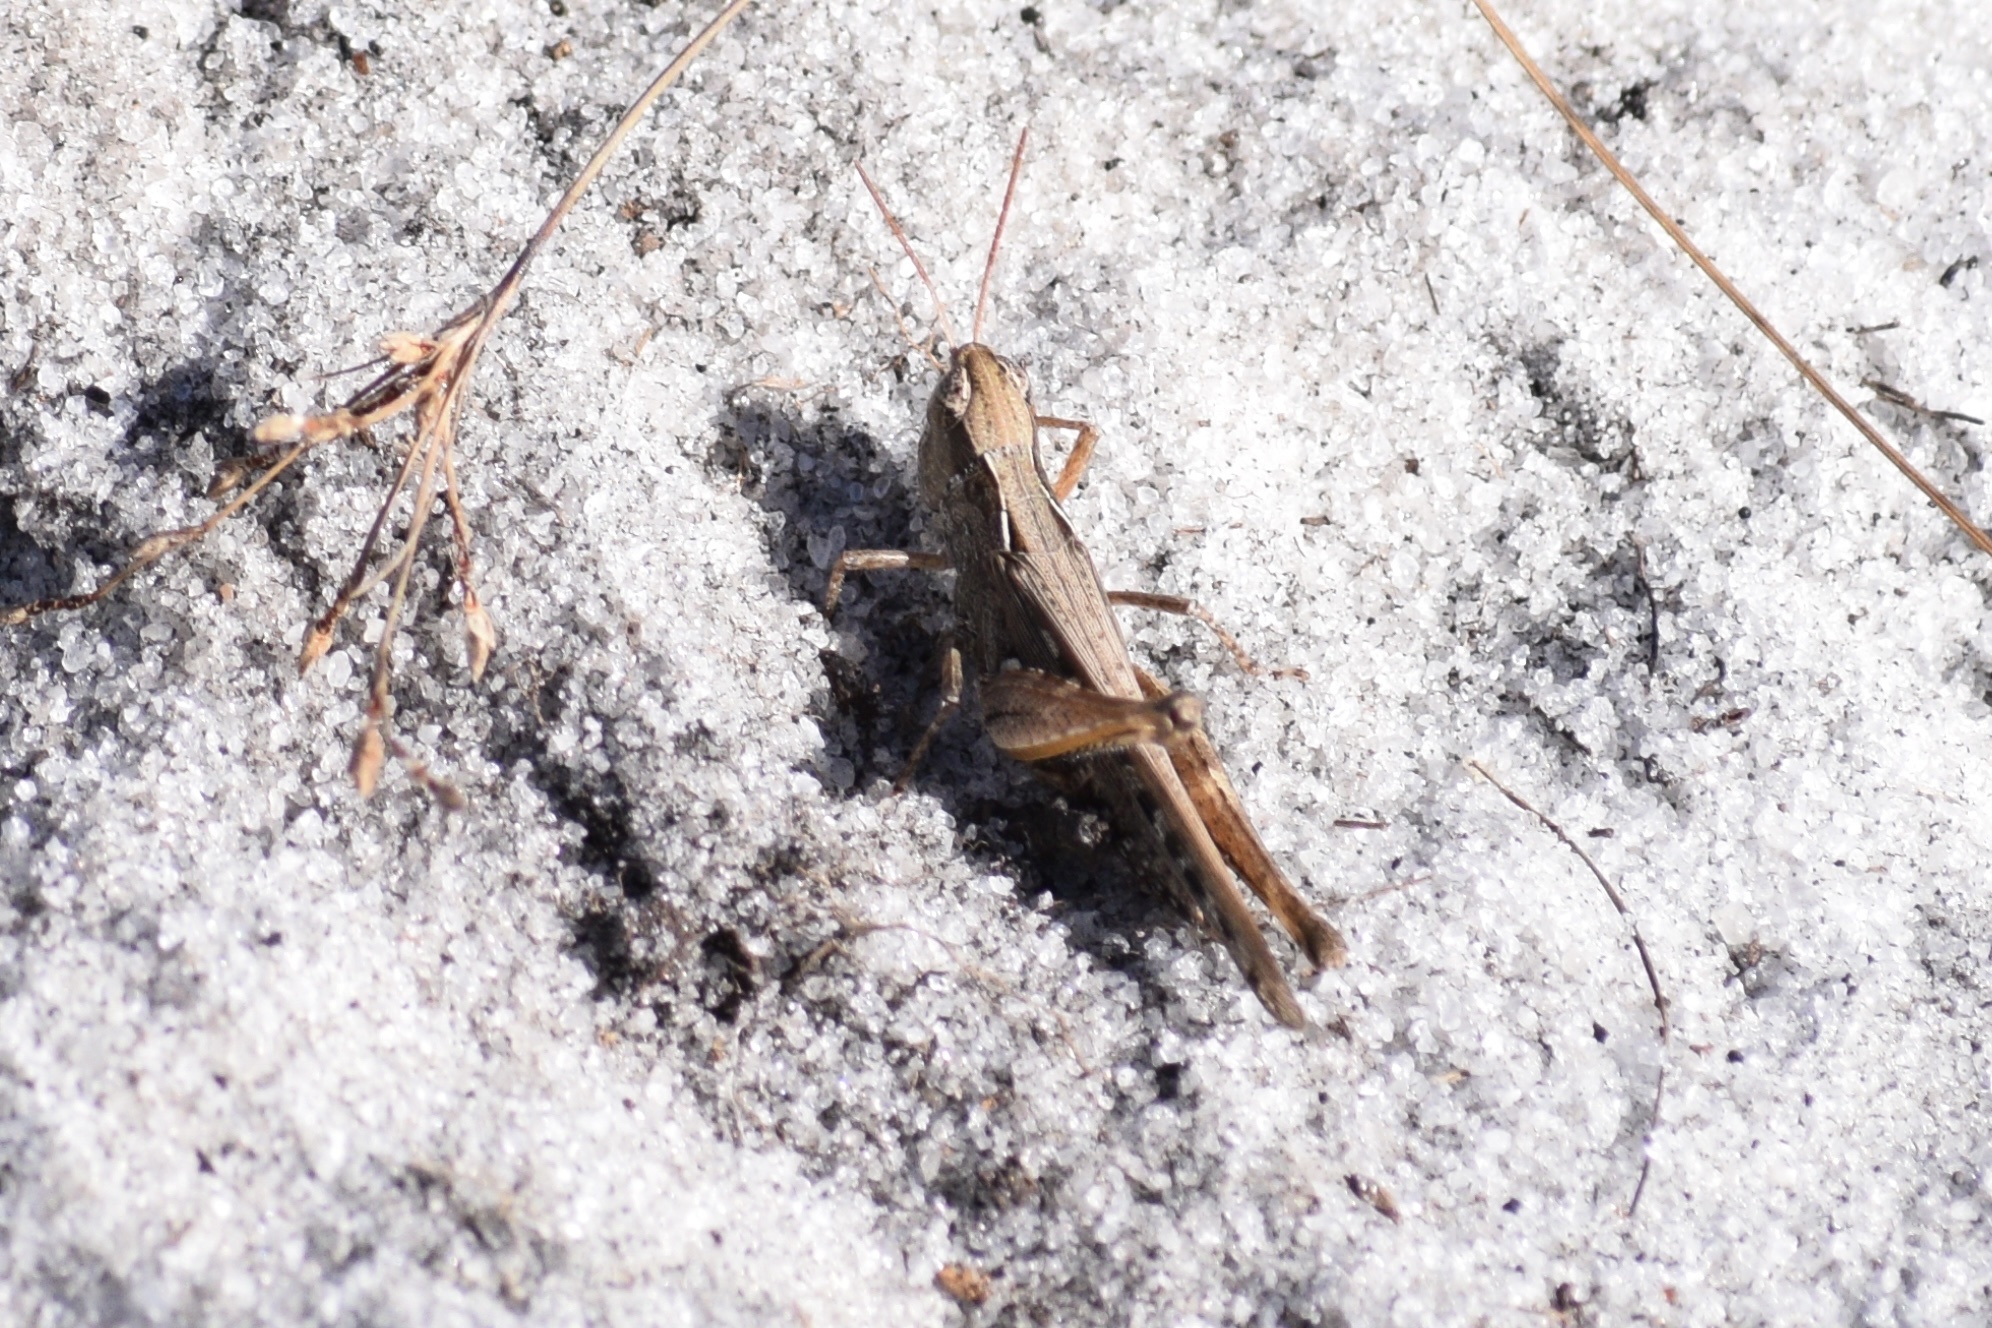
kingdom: Animalia
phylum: Arthropoda
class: Insecta
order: Orthoptera
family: Acrididae
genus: Orphulella
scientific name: Orphulella pelidna
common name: Spotted-wing grasshopper
